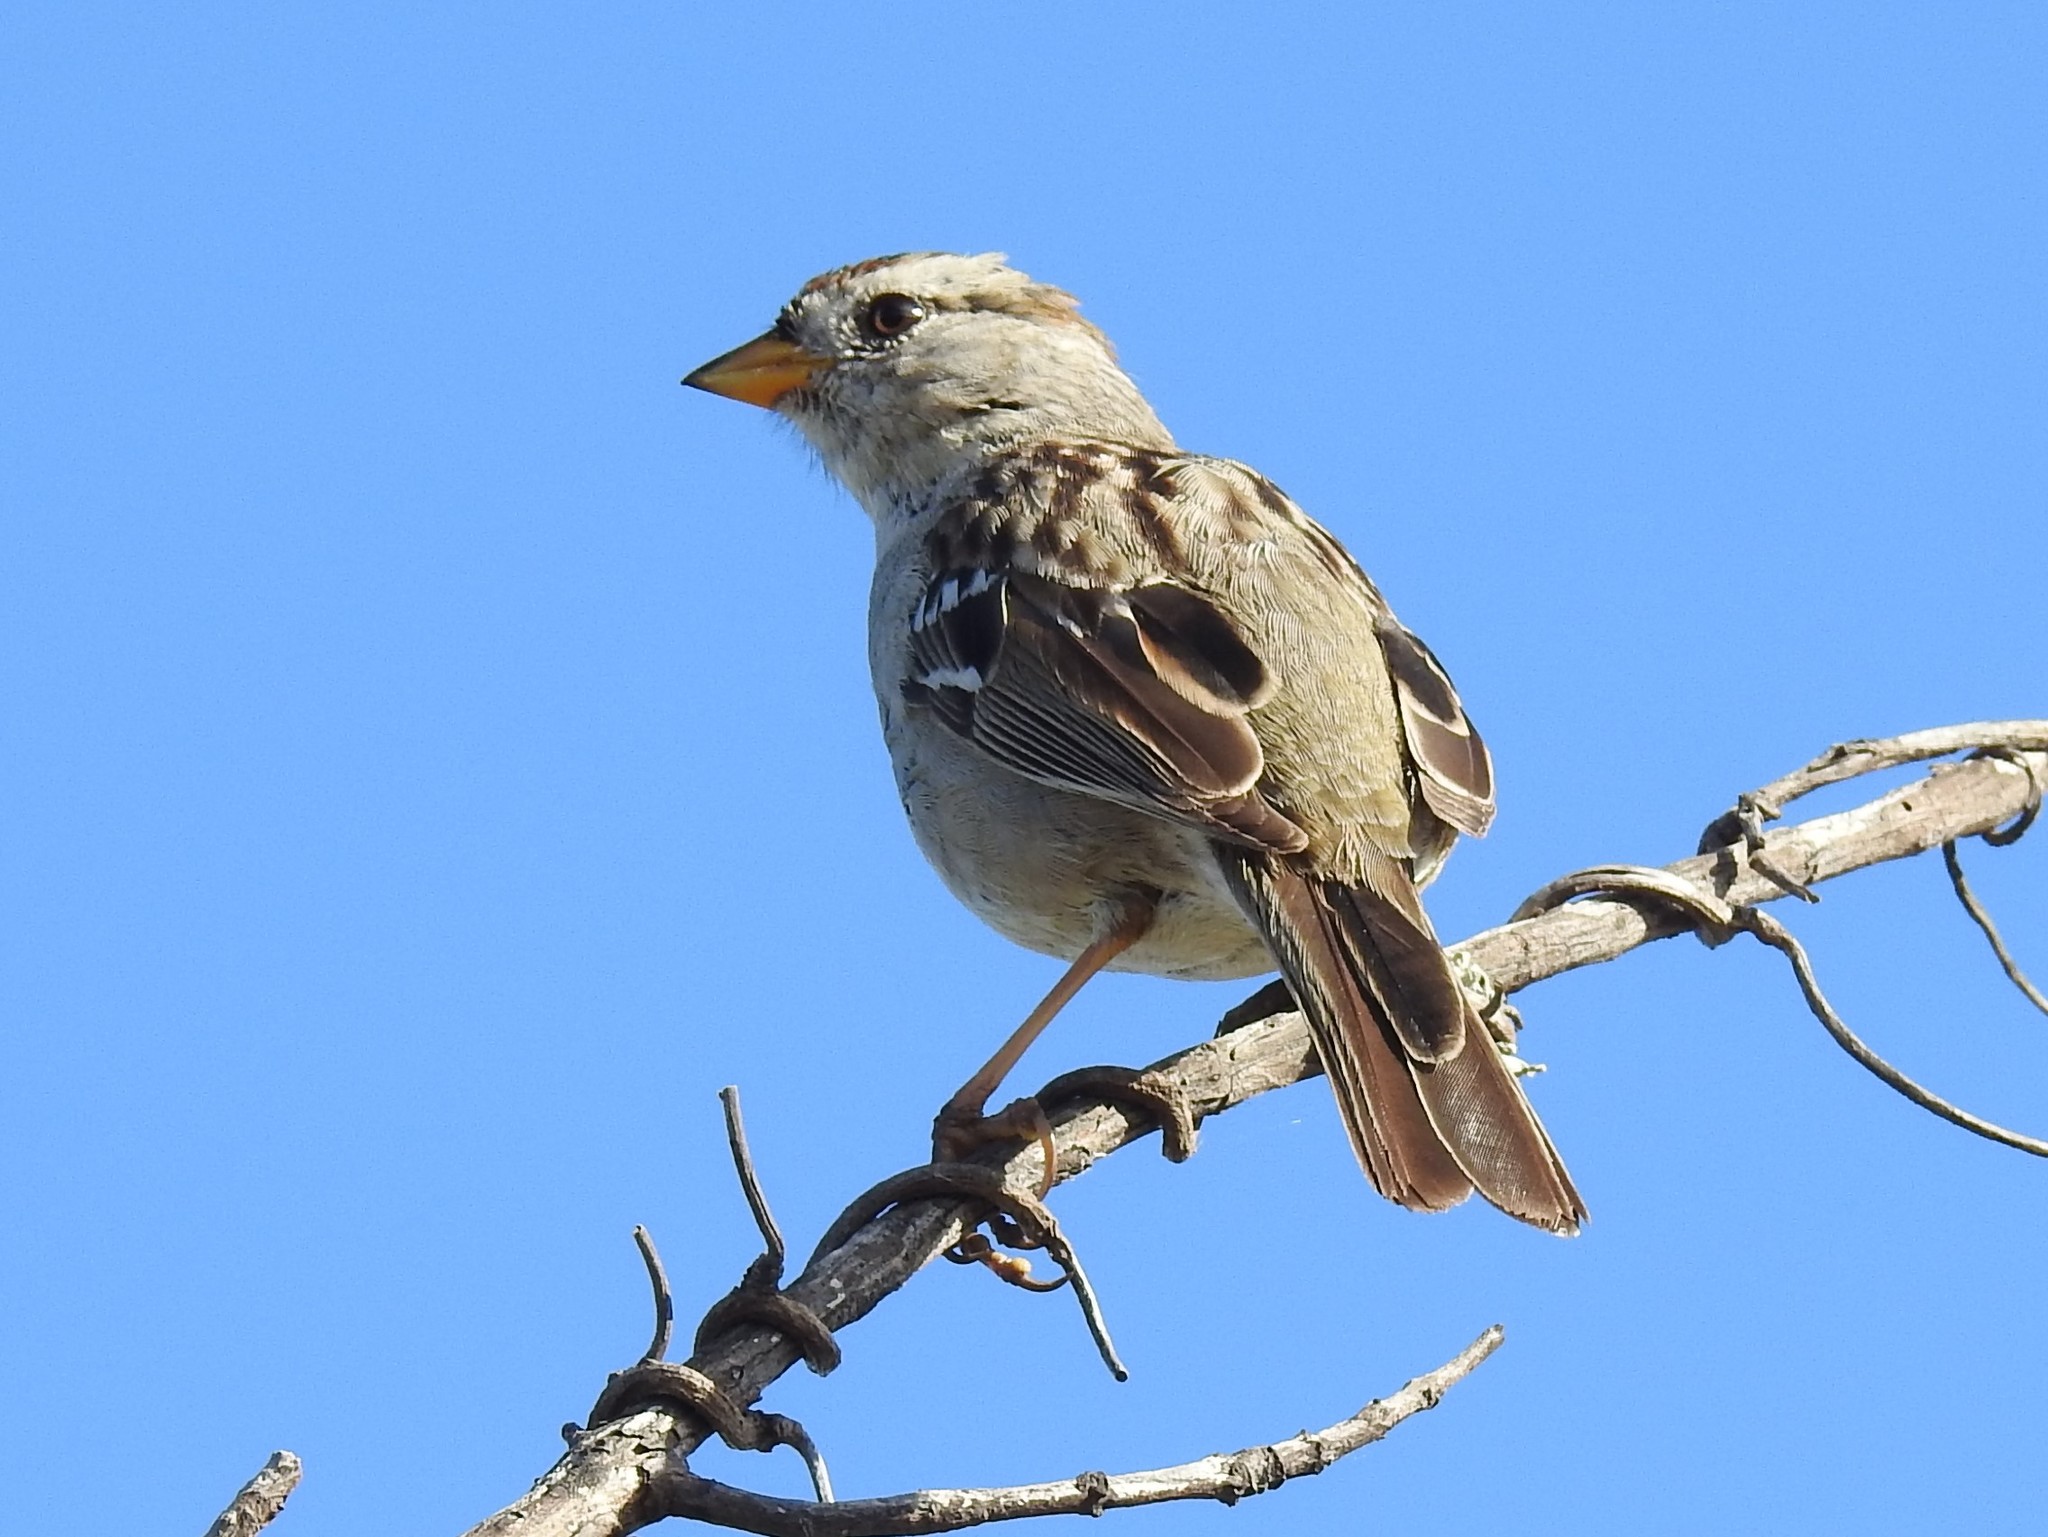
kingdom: Animalia
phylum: Chordata
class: Aves
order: Passeriformes
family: Passerellidae
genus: Zonotrichia
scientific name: Zonotrichia leucophrys
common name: White-crowned sparrow
